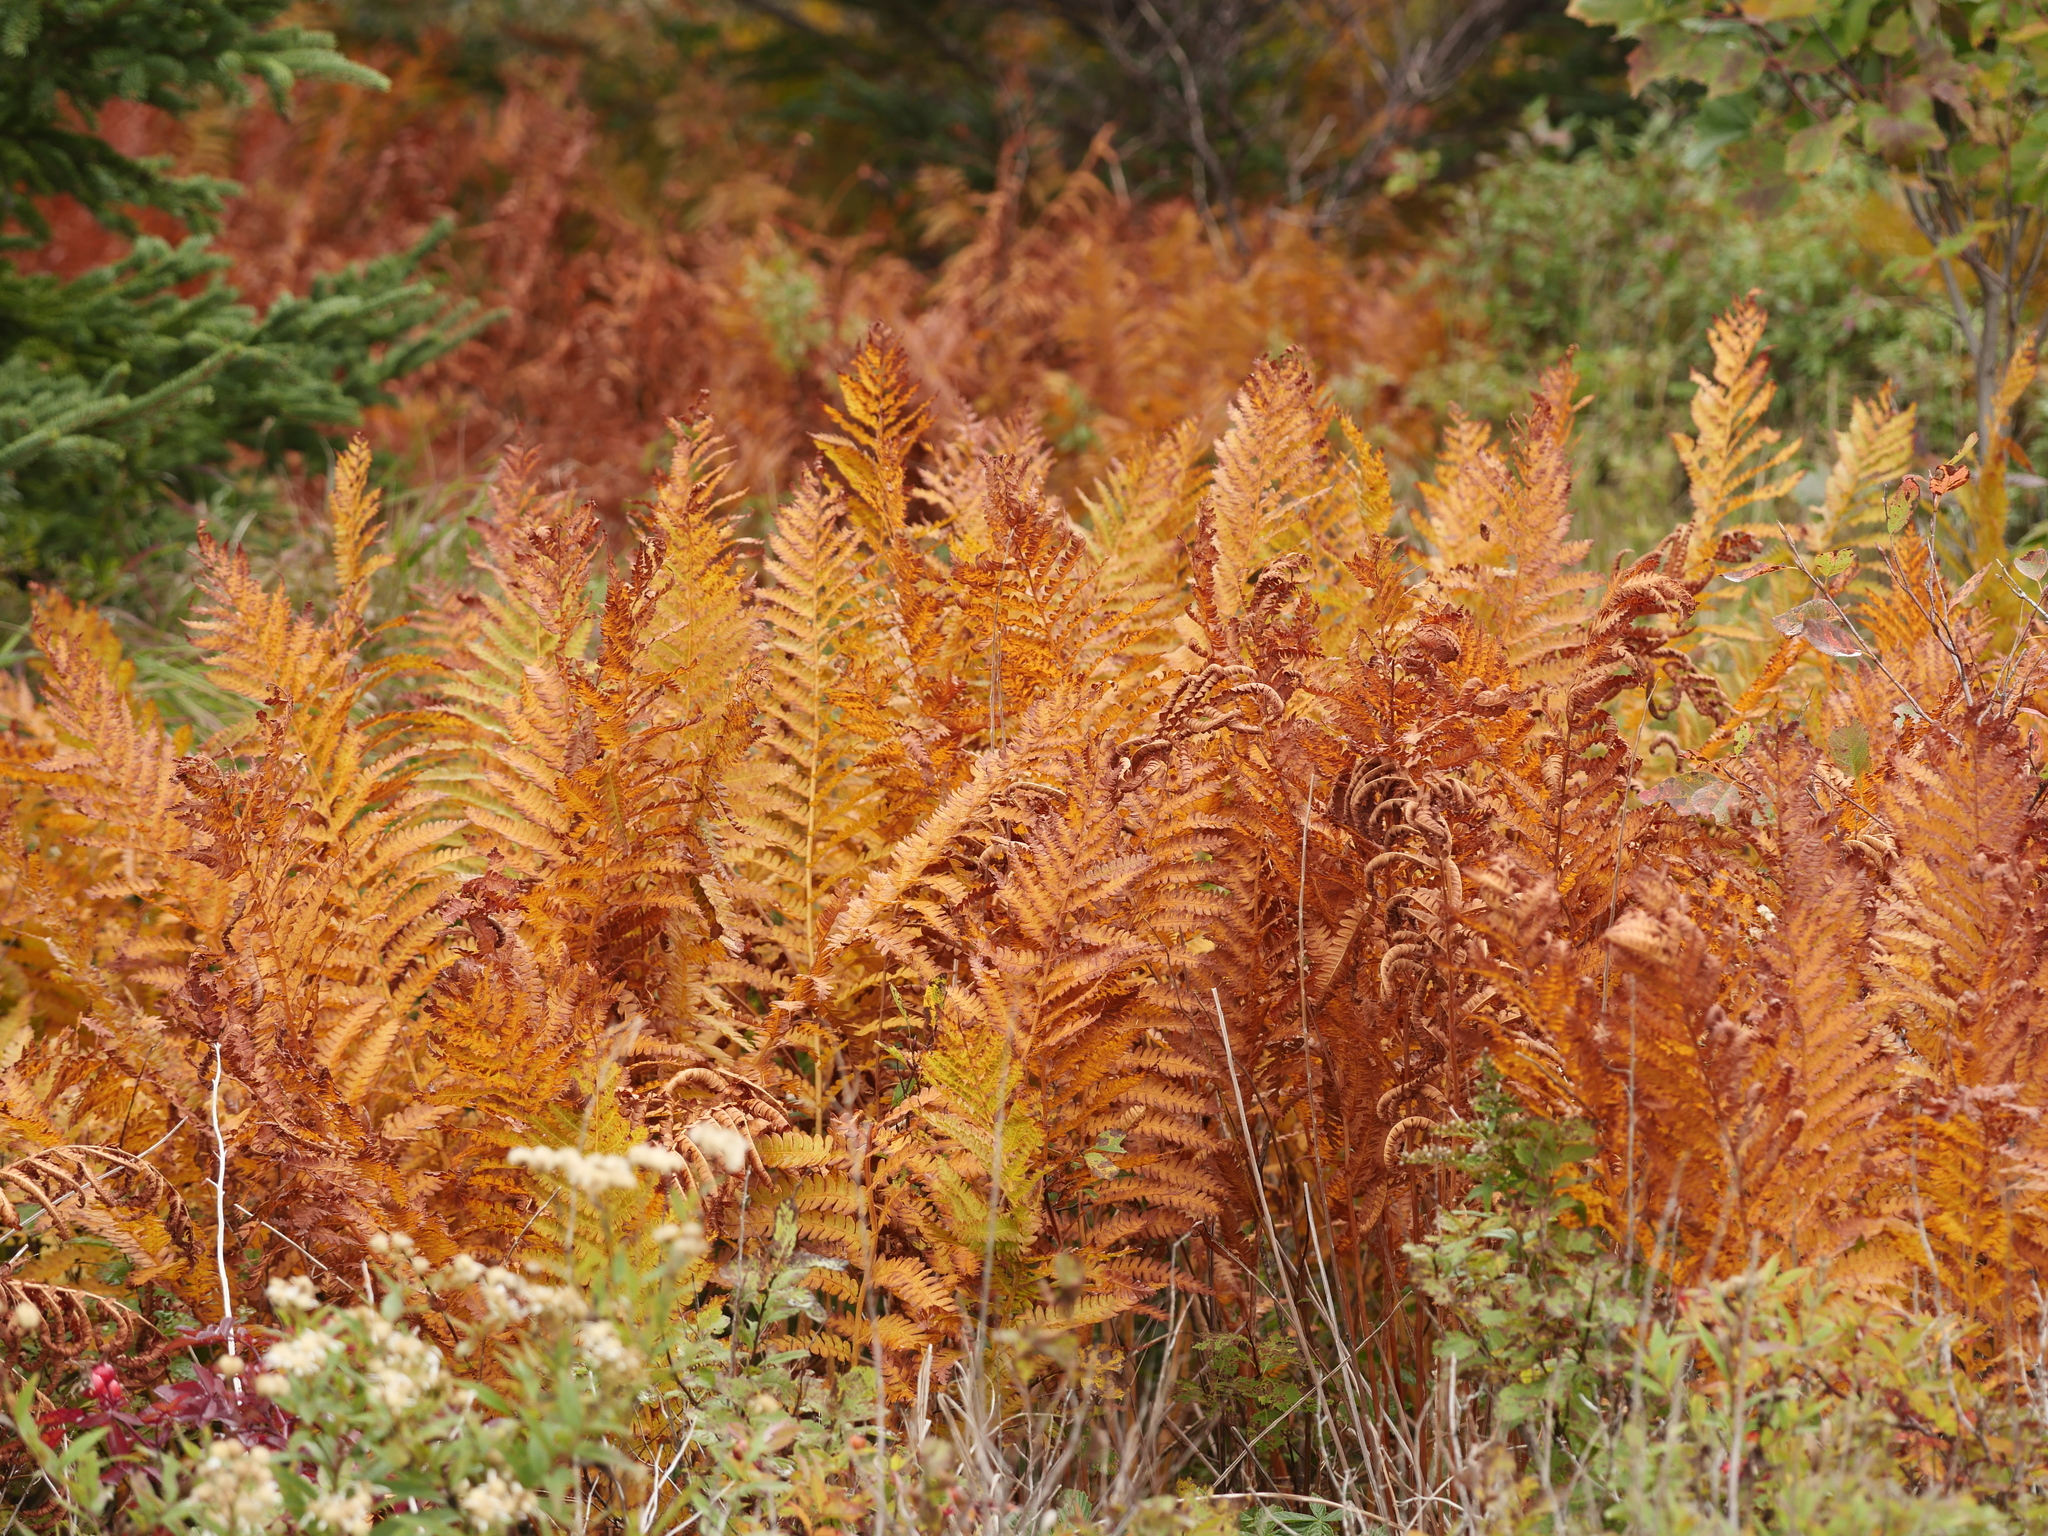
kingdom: Plantae
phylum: Tracheophyta
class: Polypodiopsida
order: Osmundales
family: Osmundaceae
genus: Osmundastrum
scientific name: Osmundastrum cinnamomeum
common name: Cinnamon fern
